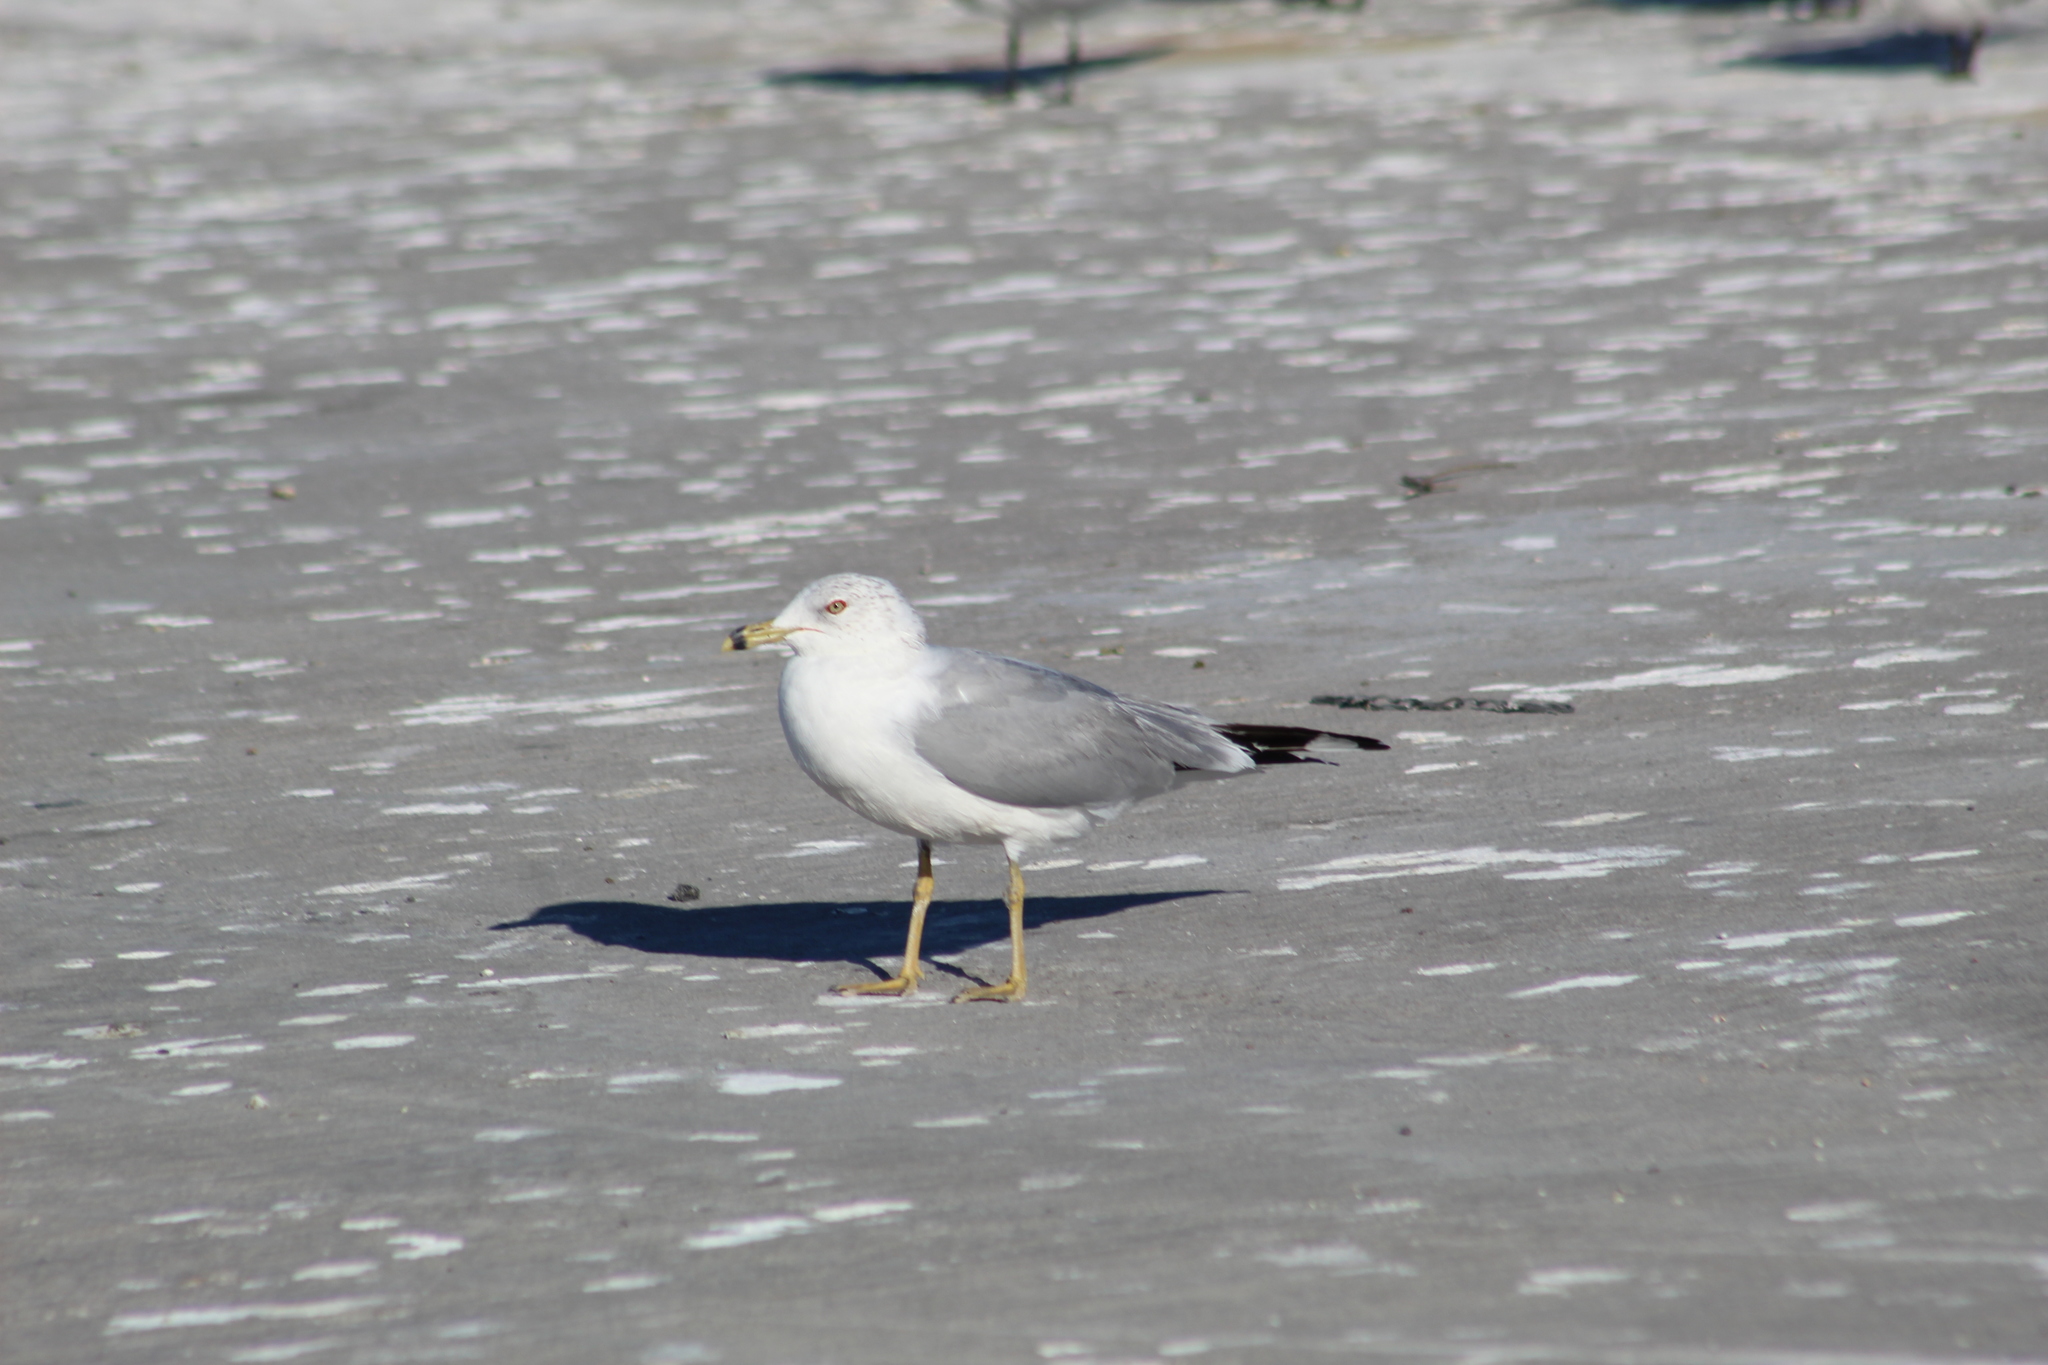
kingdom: Animalia
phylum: Chordata
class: Aves
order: Charadriiformes
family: Laridae
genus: Larus
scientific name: Larus delawarensis
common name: Ring-billed gull
